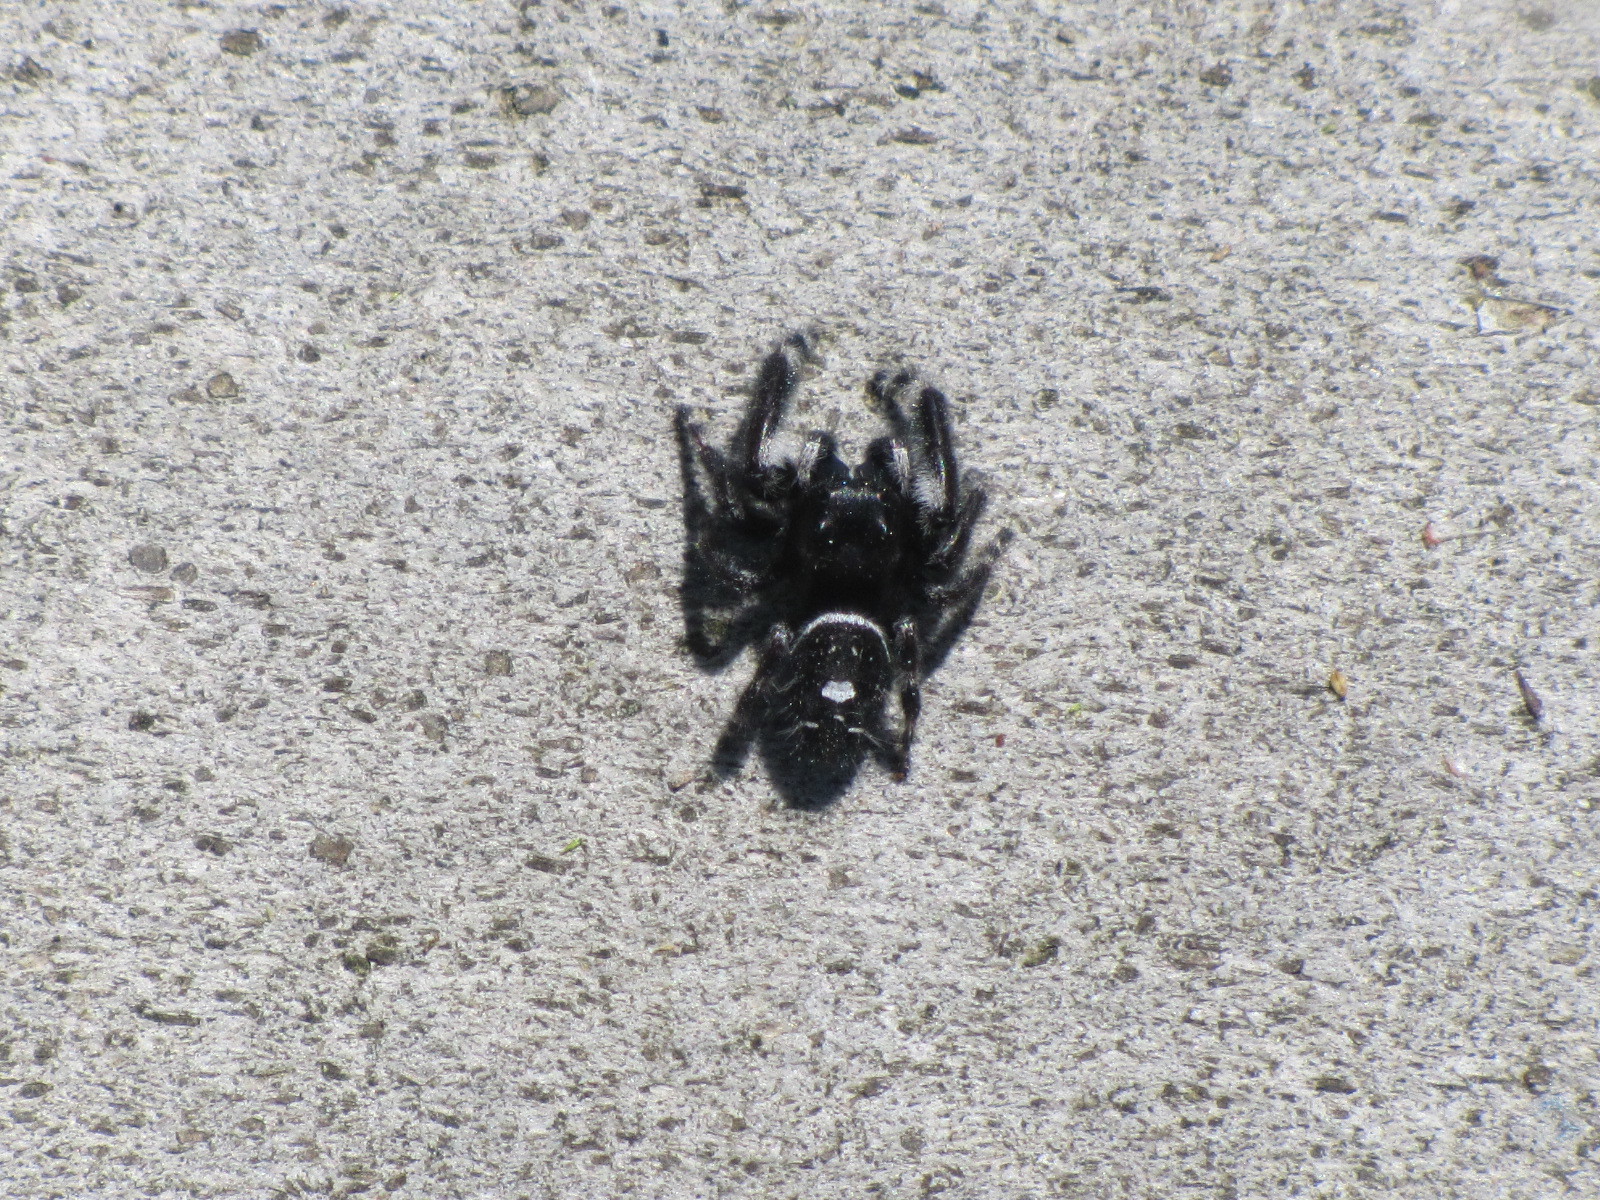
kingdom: Animalia
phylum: Arthropoda
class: Arachnida
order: Araneae
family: Salticidae
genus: Phidippus
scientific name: Phidippus audax
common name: Bold jumper
